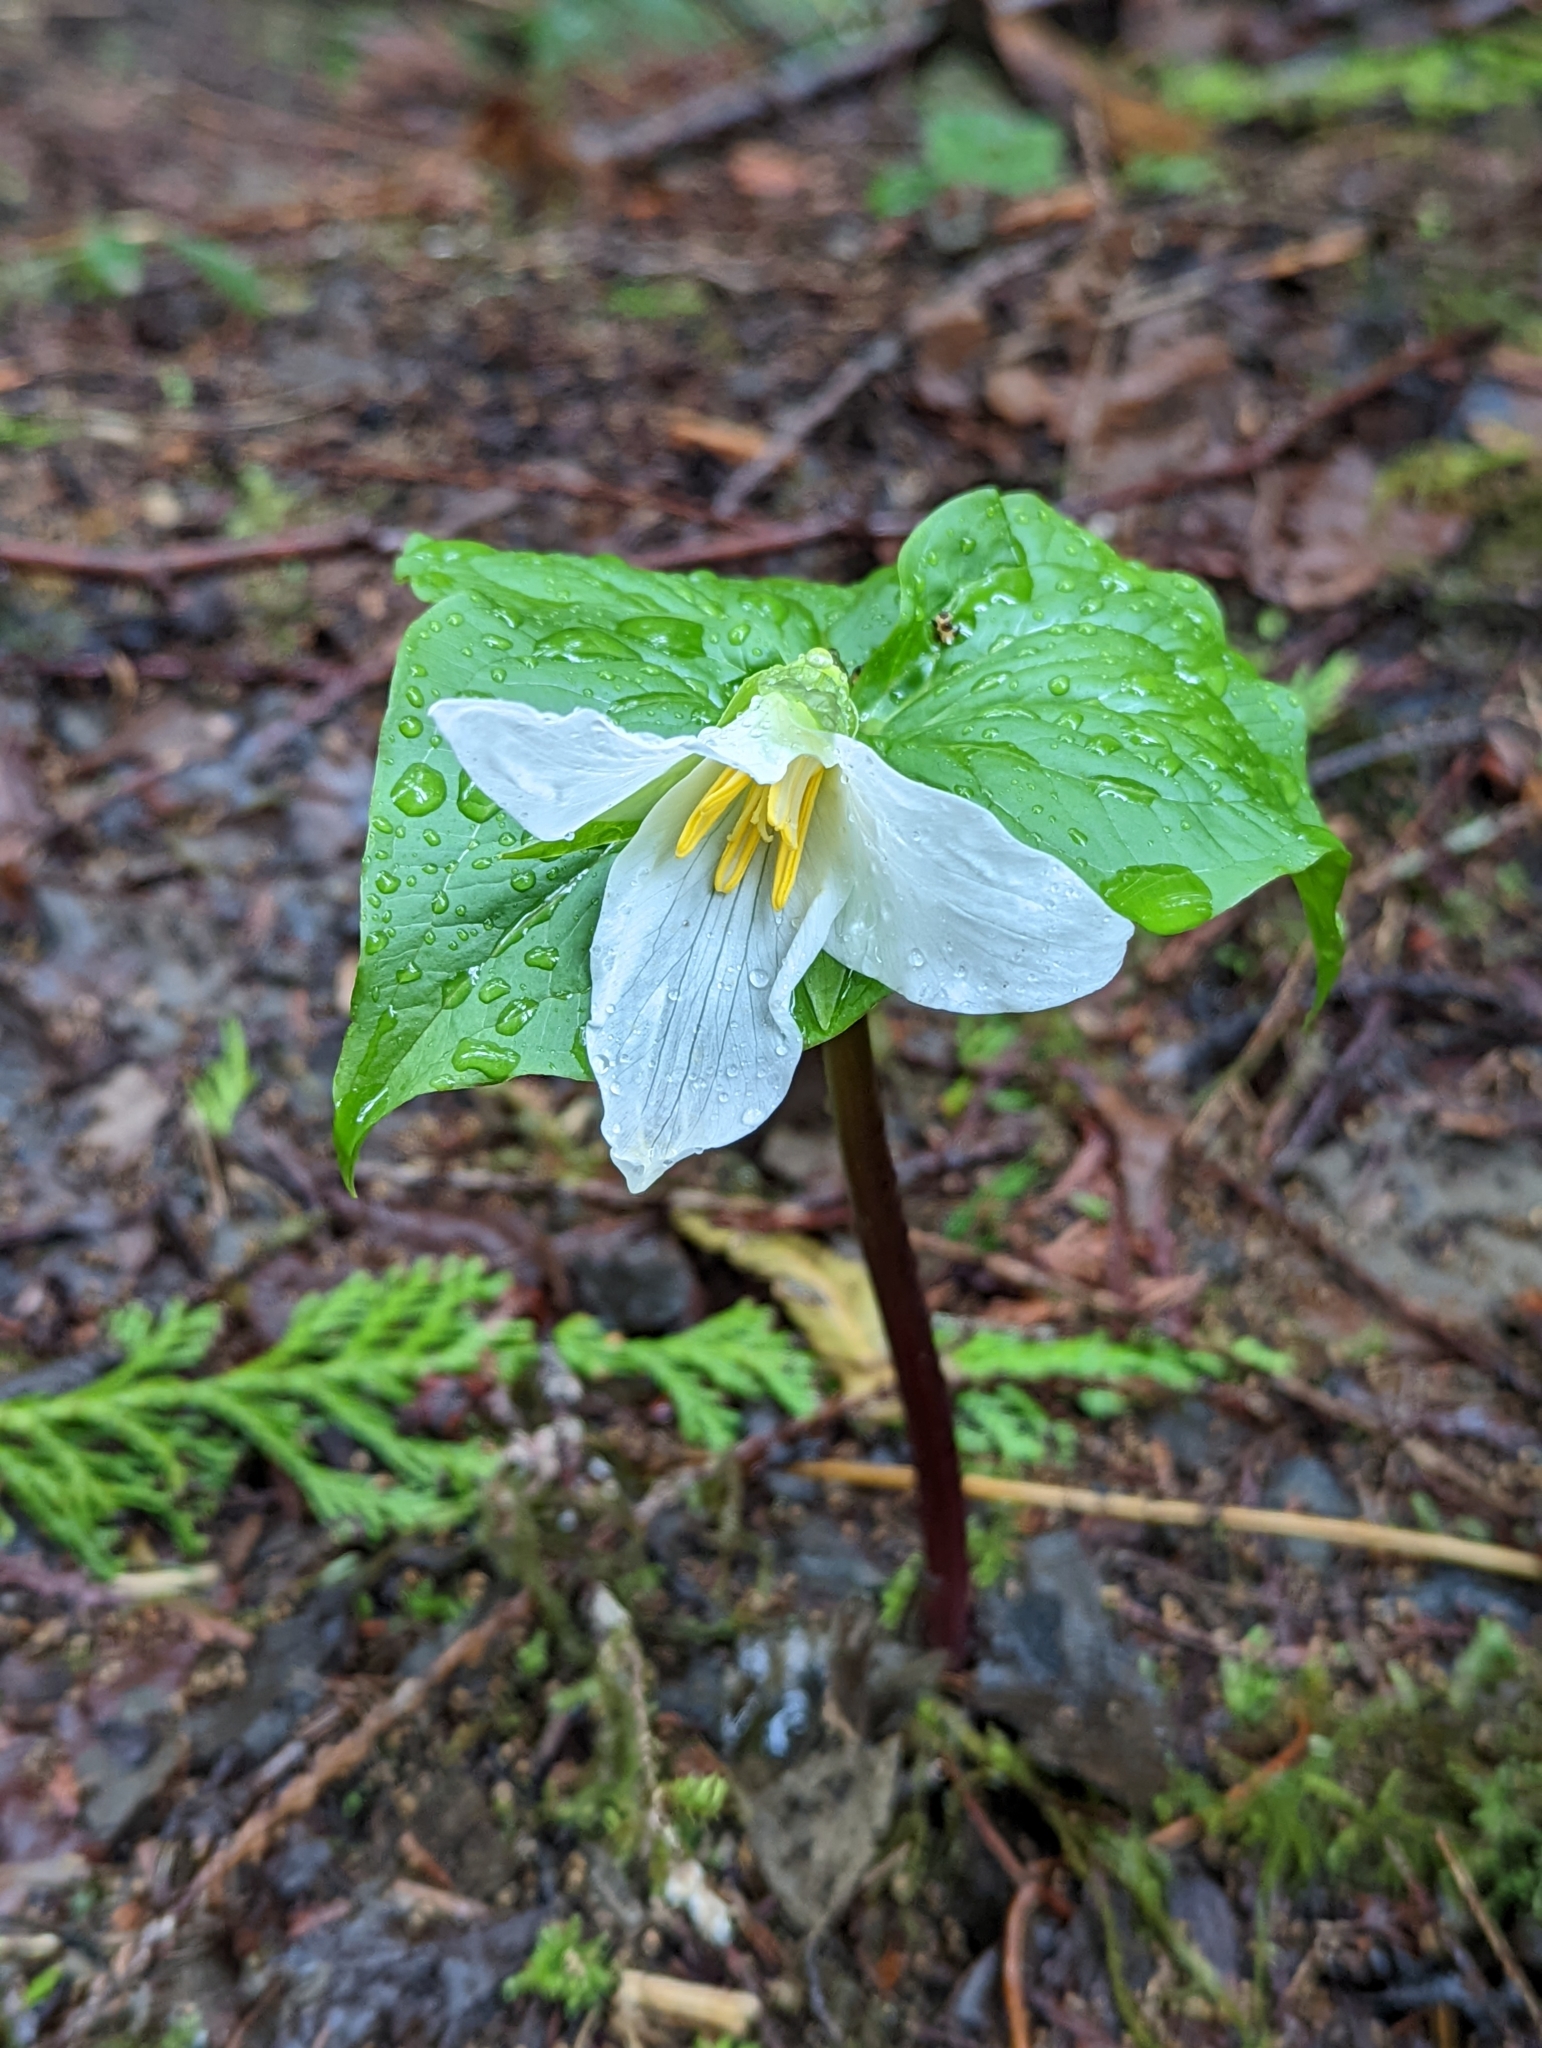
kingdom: Plantae
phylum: Tracheophyta
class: Liliopsida
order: Liliales
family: Melanthiaceae
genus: Trillium
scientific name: Trillium ovatum
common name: Pacific trillium
